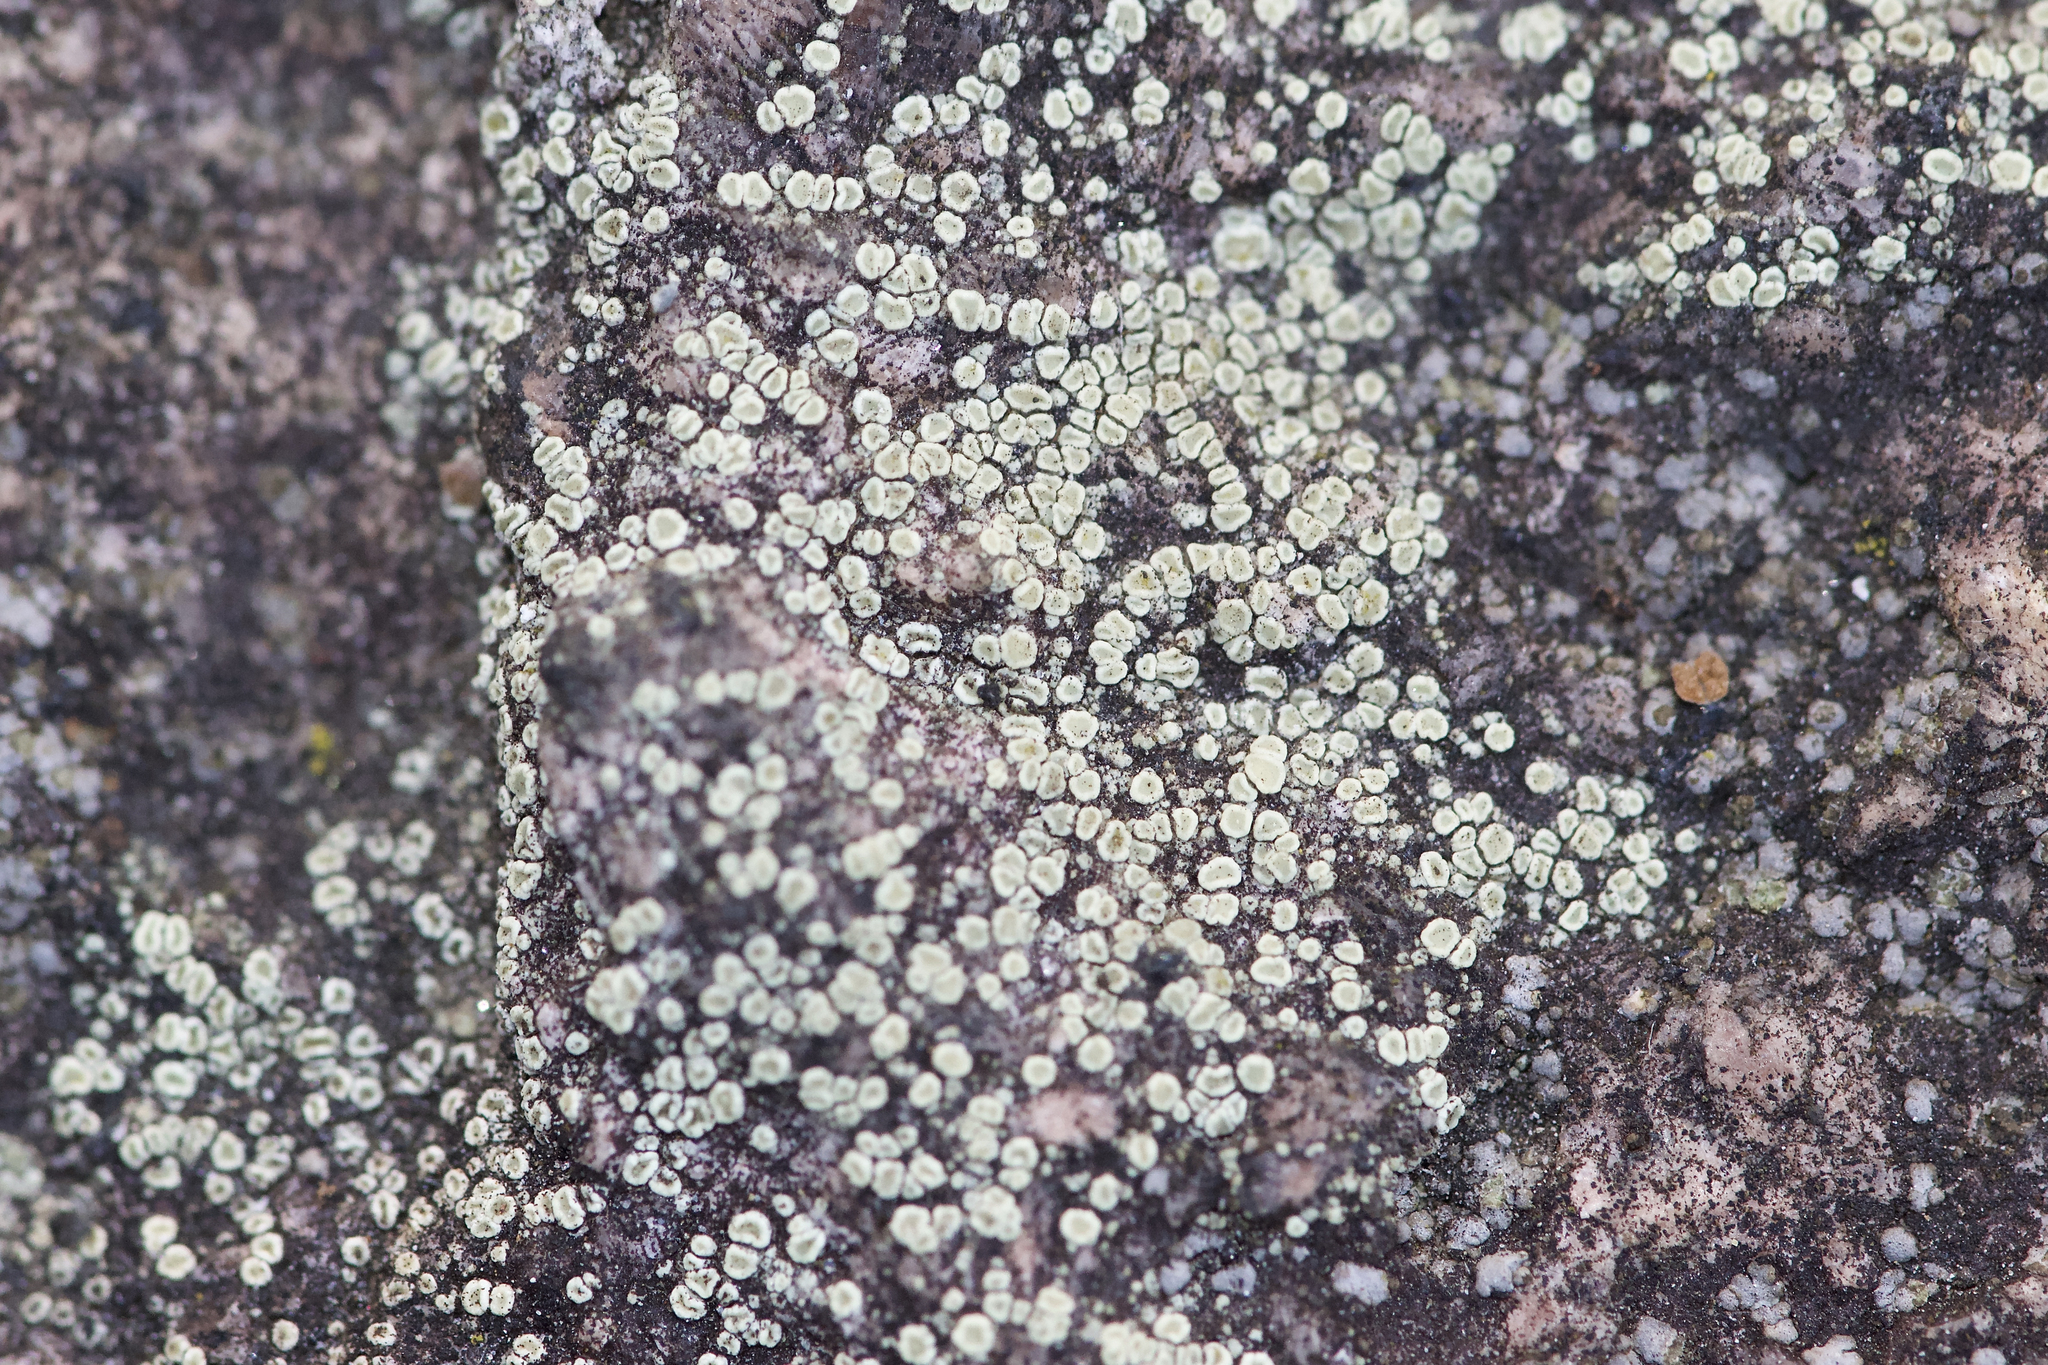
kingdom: Fungi
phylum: Ascomycota
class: Lecanoromycetes
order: Lecanorales
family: Lecanoraceae
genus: Lecanora
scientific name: Lecanora polytropa
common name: Granite-speck rim lichen
